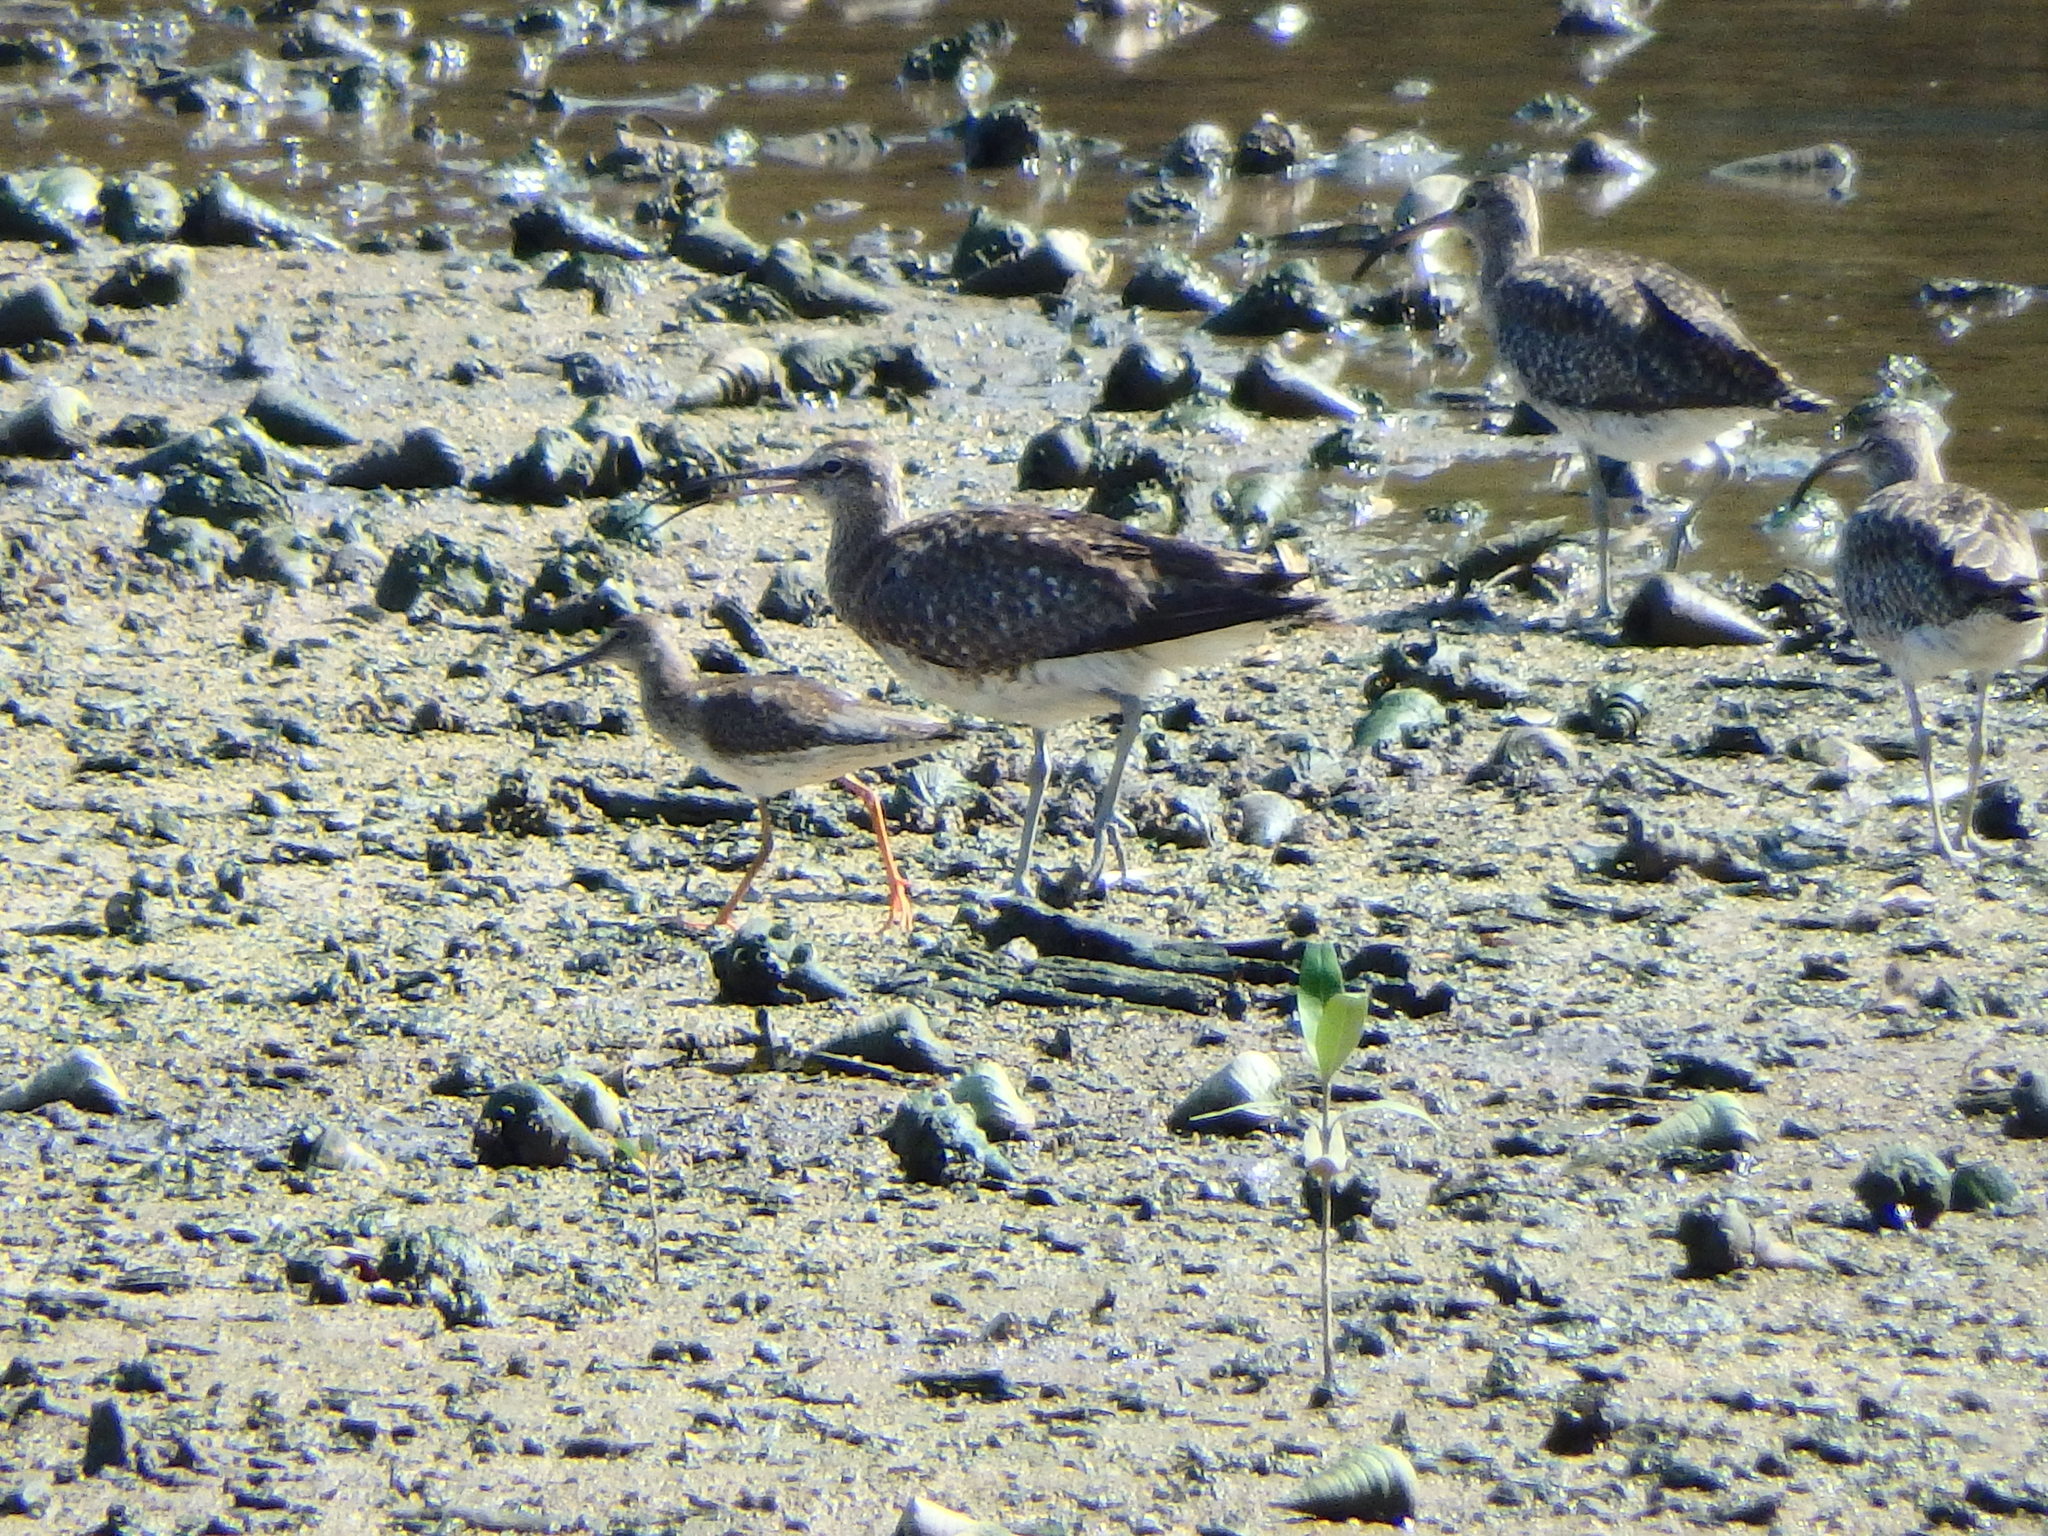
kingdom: Animalia
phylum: Chordata
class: Aves
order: Charadriiformes
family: Scolopacidae
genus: Tringa
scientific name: Tringa totanus
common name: Common redshank
